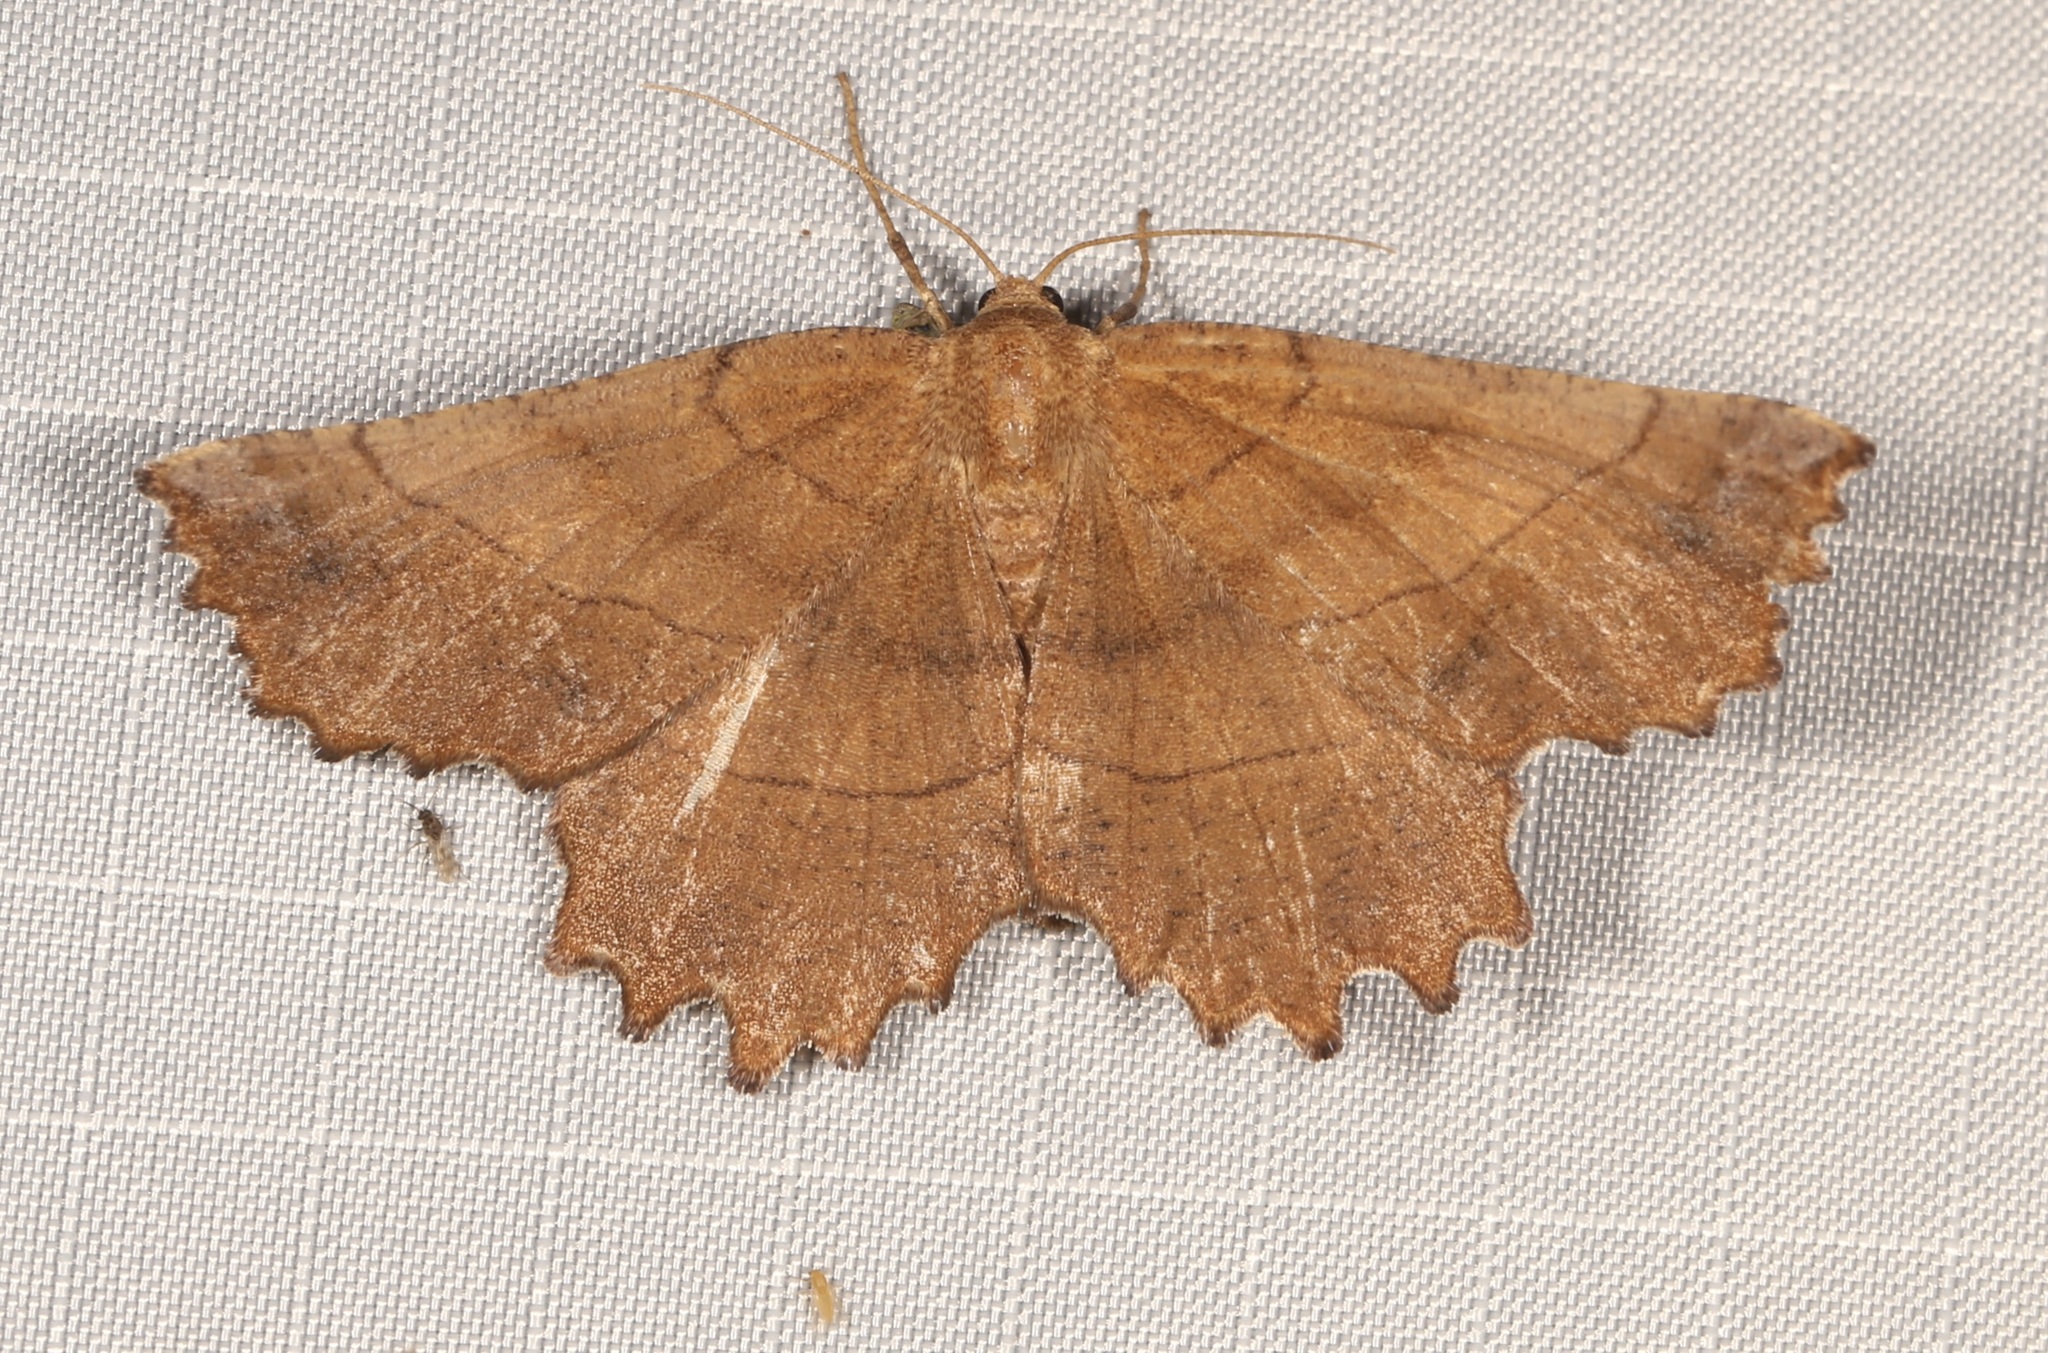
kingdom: Animalia
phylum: Arthropoda
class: Insecta
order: Lepidoptera
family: Geometridae
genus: Euchlaena
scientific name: Euchlaena johnsonaria
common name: Johnson's euchlaena
